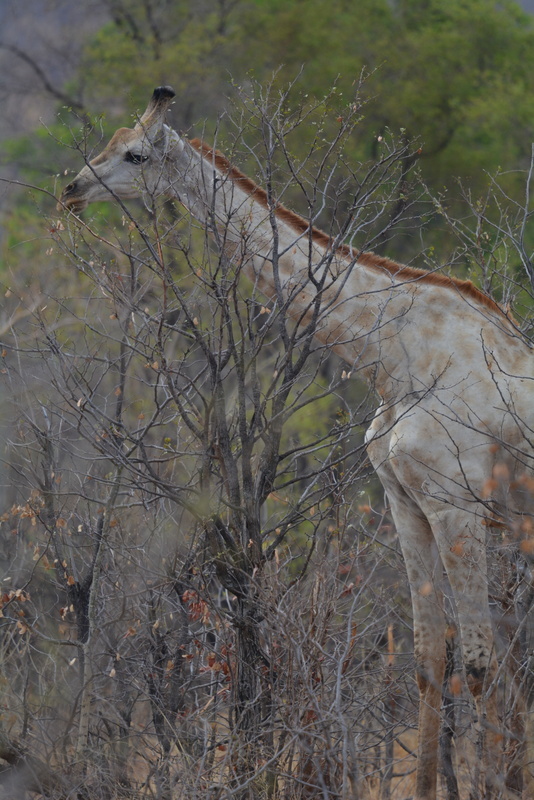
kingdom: Animalia
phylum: Chordata
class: Mammalia
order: Artiodactyla
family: Giraffidae
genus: Giraffa
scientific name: Giraffa giraffa
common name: Southern giraffe
